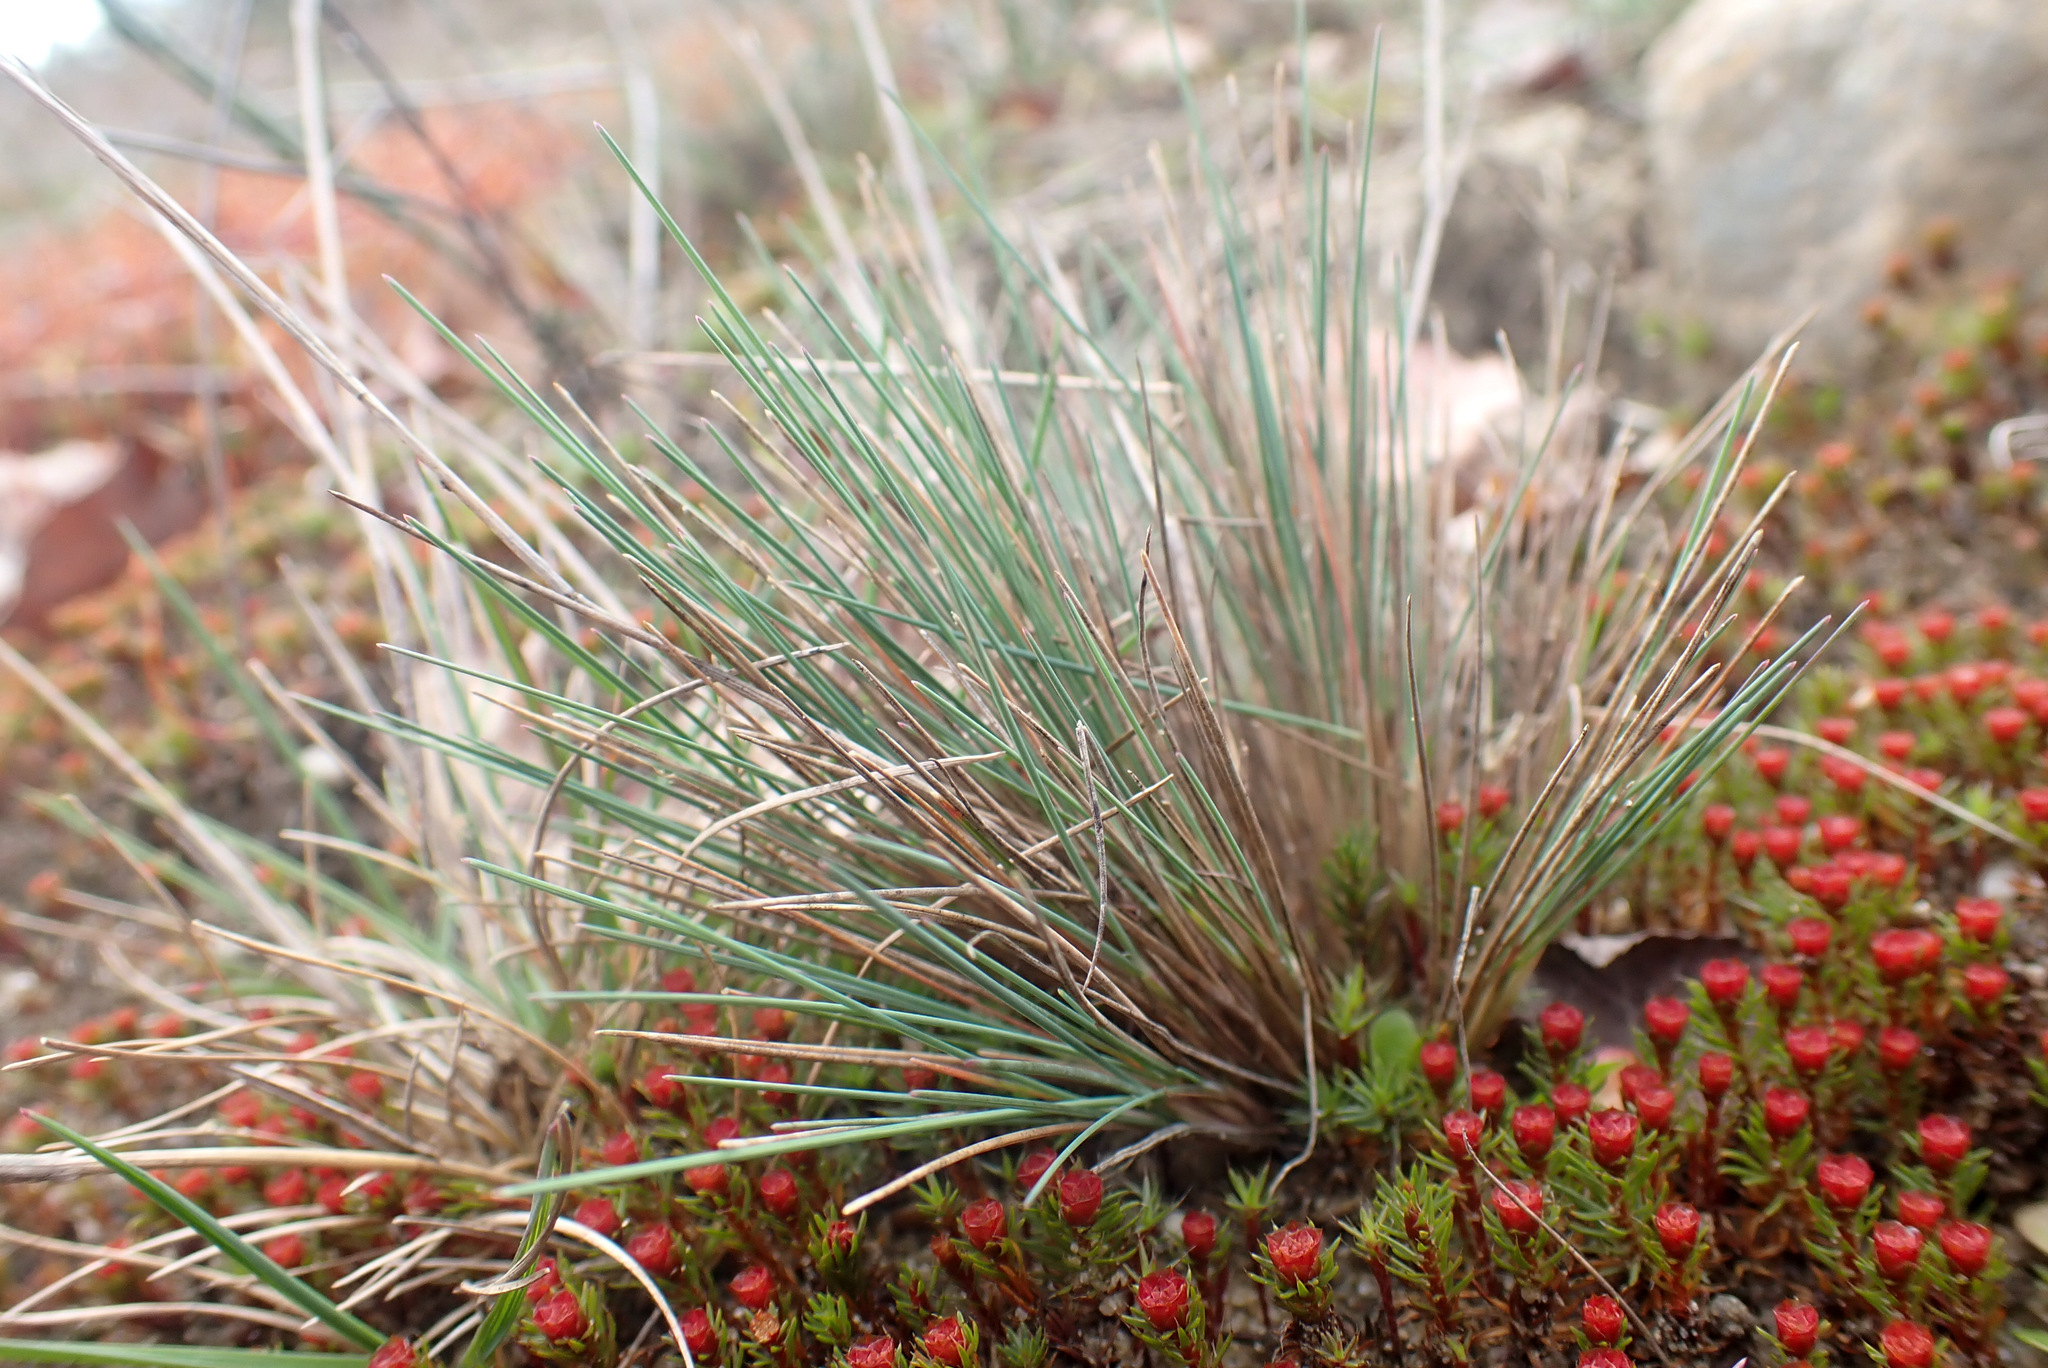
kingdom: Plantae
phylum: Tracheophyta
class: Liliopsida
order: Poales
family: Poaceae
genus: Corynephorus
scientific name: Corynephorus canescens
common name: Grey hair-grass
